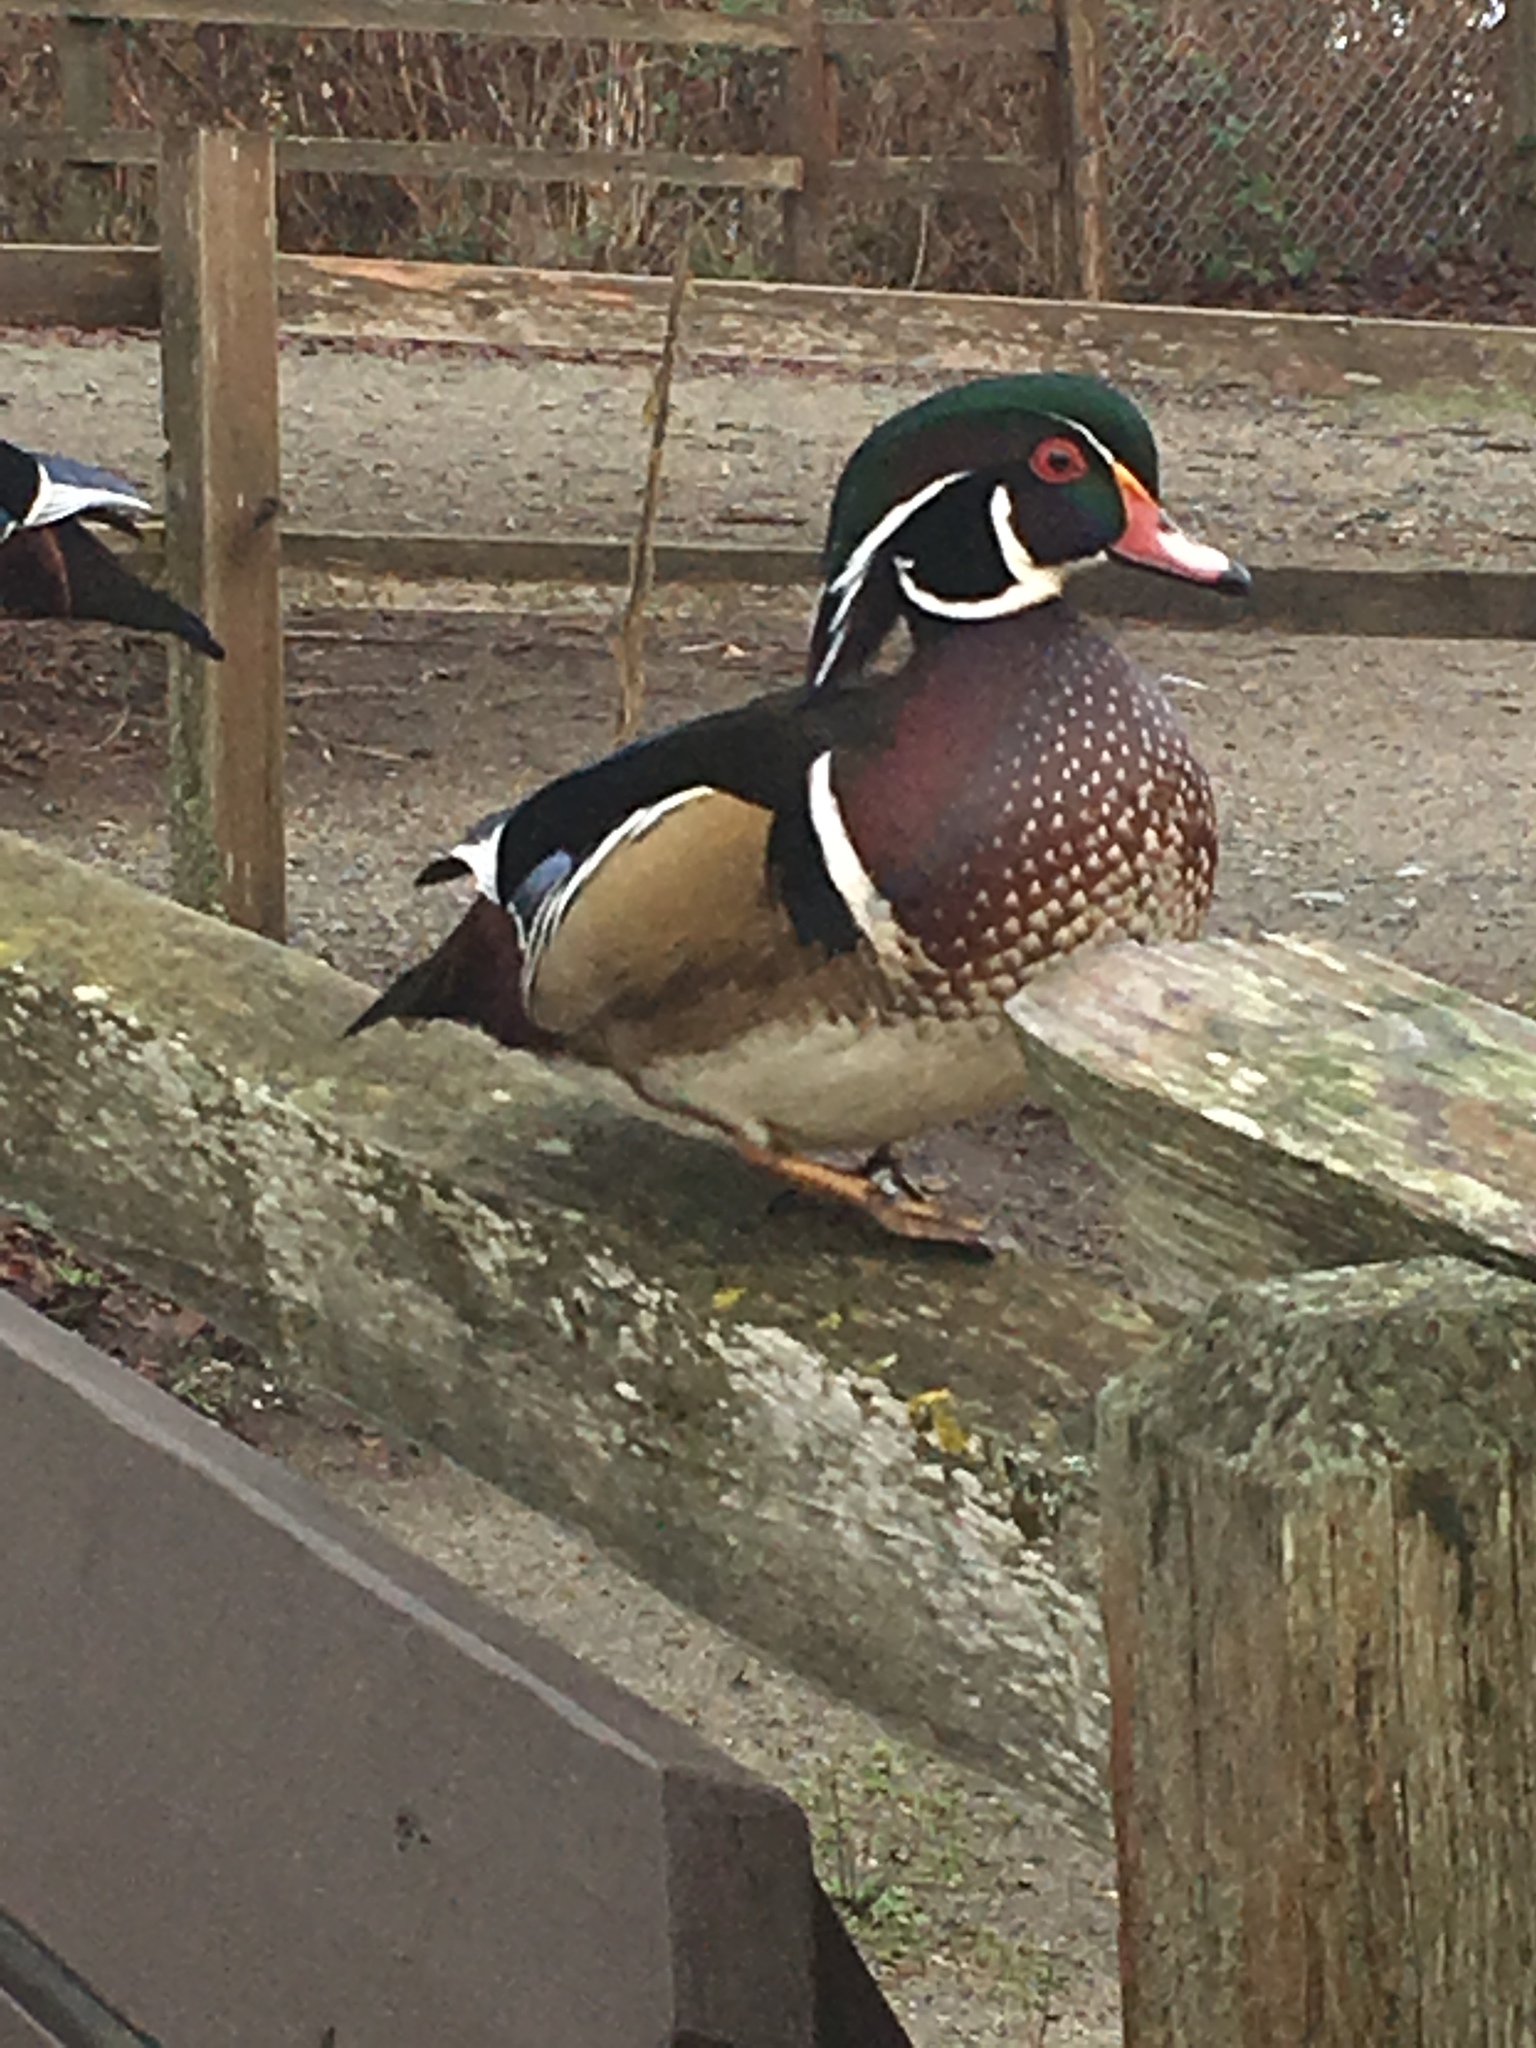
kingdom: Animalia
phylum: Chordata
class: Aves
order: Anseriformes
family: Anatidae
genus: Aix
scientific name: Aix sponsa
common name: Wood duck
